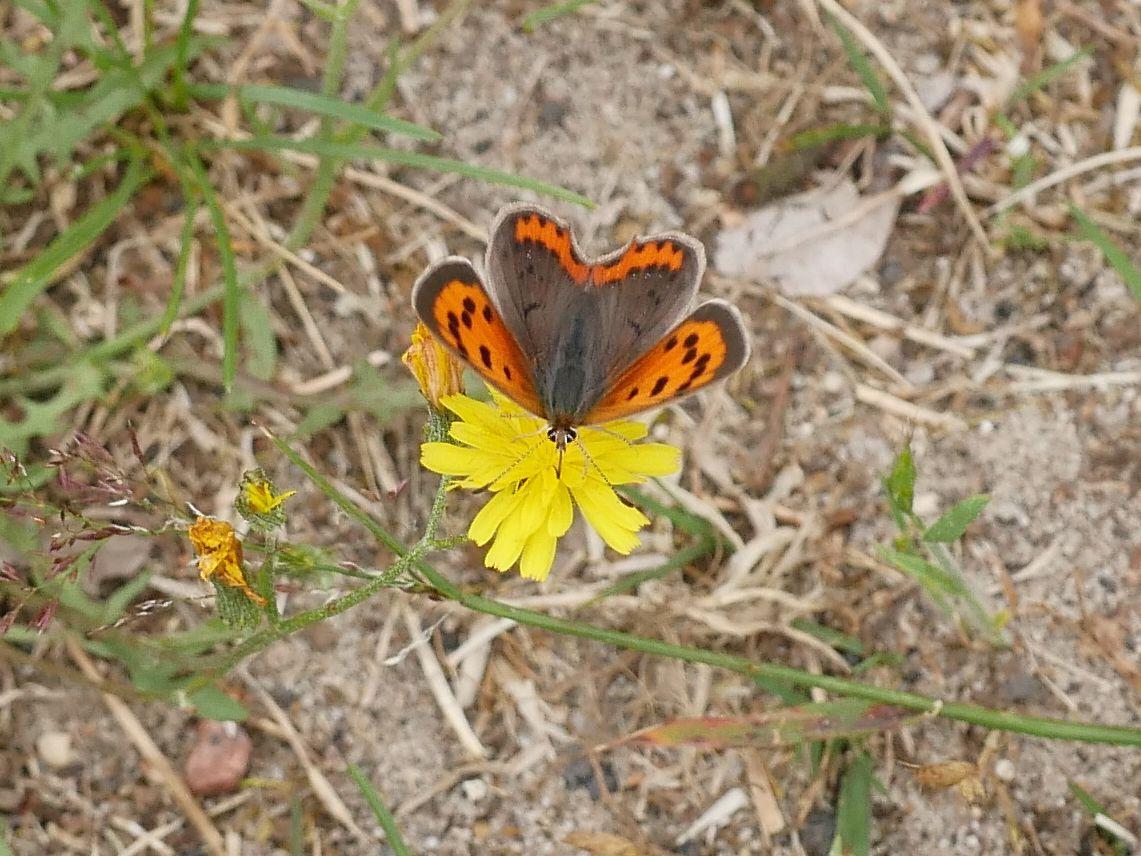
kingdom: Animalia
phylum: Arthropoda
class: Insecta
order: Lepidoptera
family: Lycaenidae
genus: Lycaena
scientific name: Lycaena phlaeas
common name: Small copper
